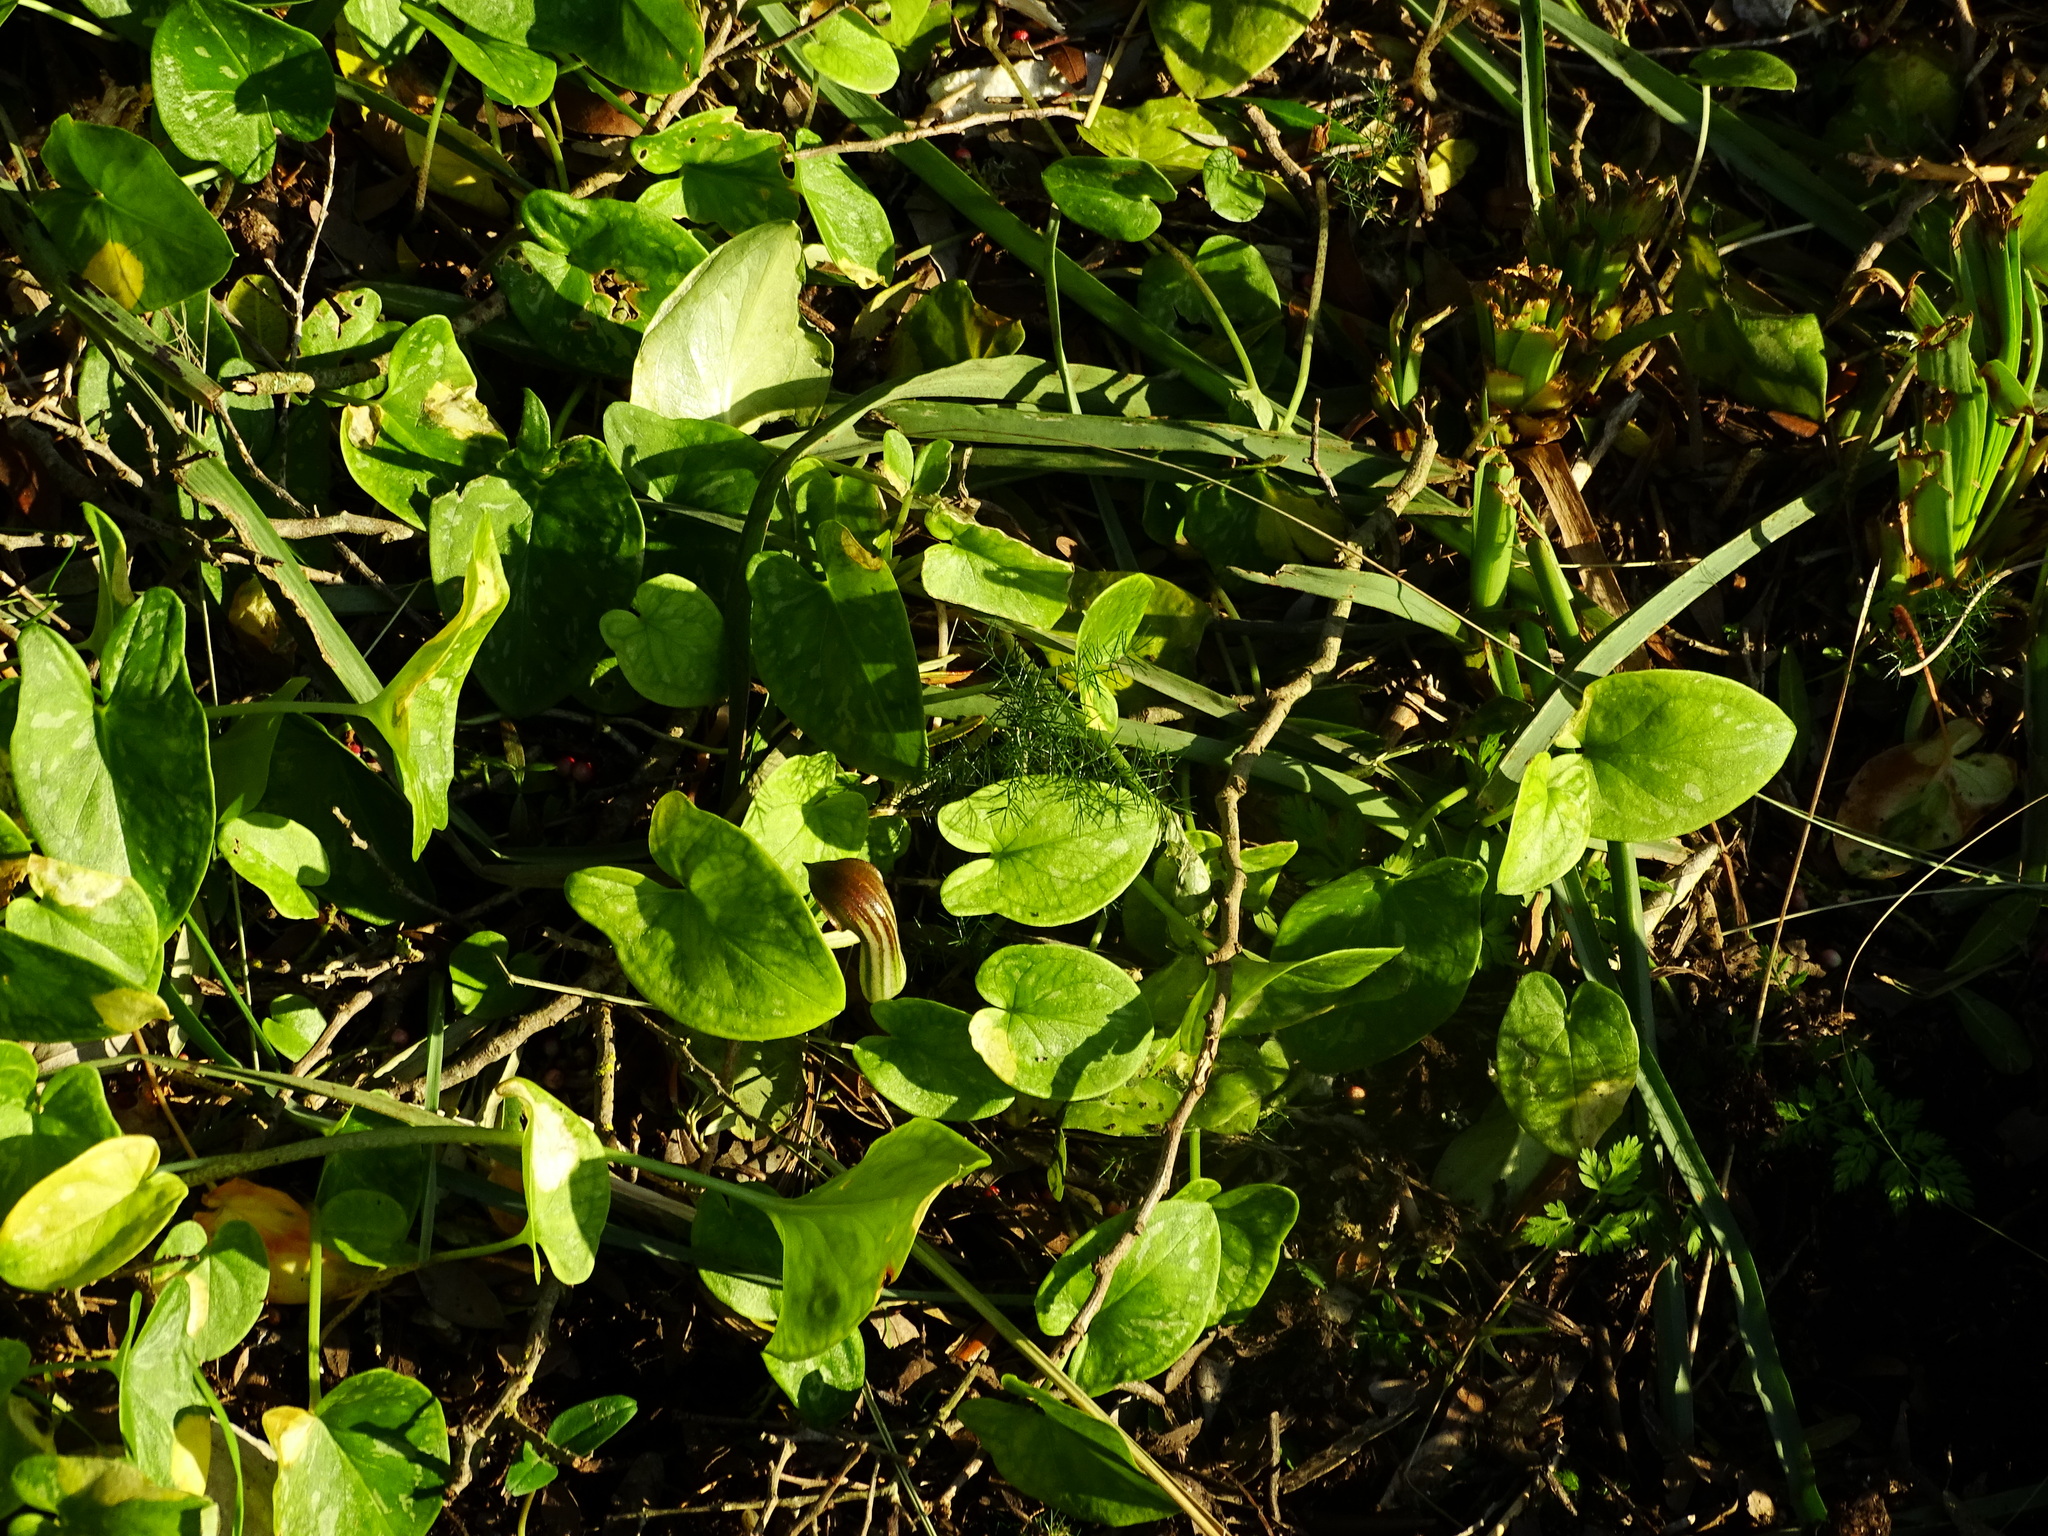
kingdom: Plantae
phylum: Tracheophyta
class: Liliopsida
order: Alismatales
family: Araceae
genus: Arisarum
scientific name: Arisarum vulgare
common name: Common arisarum
